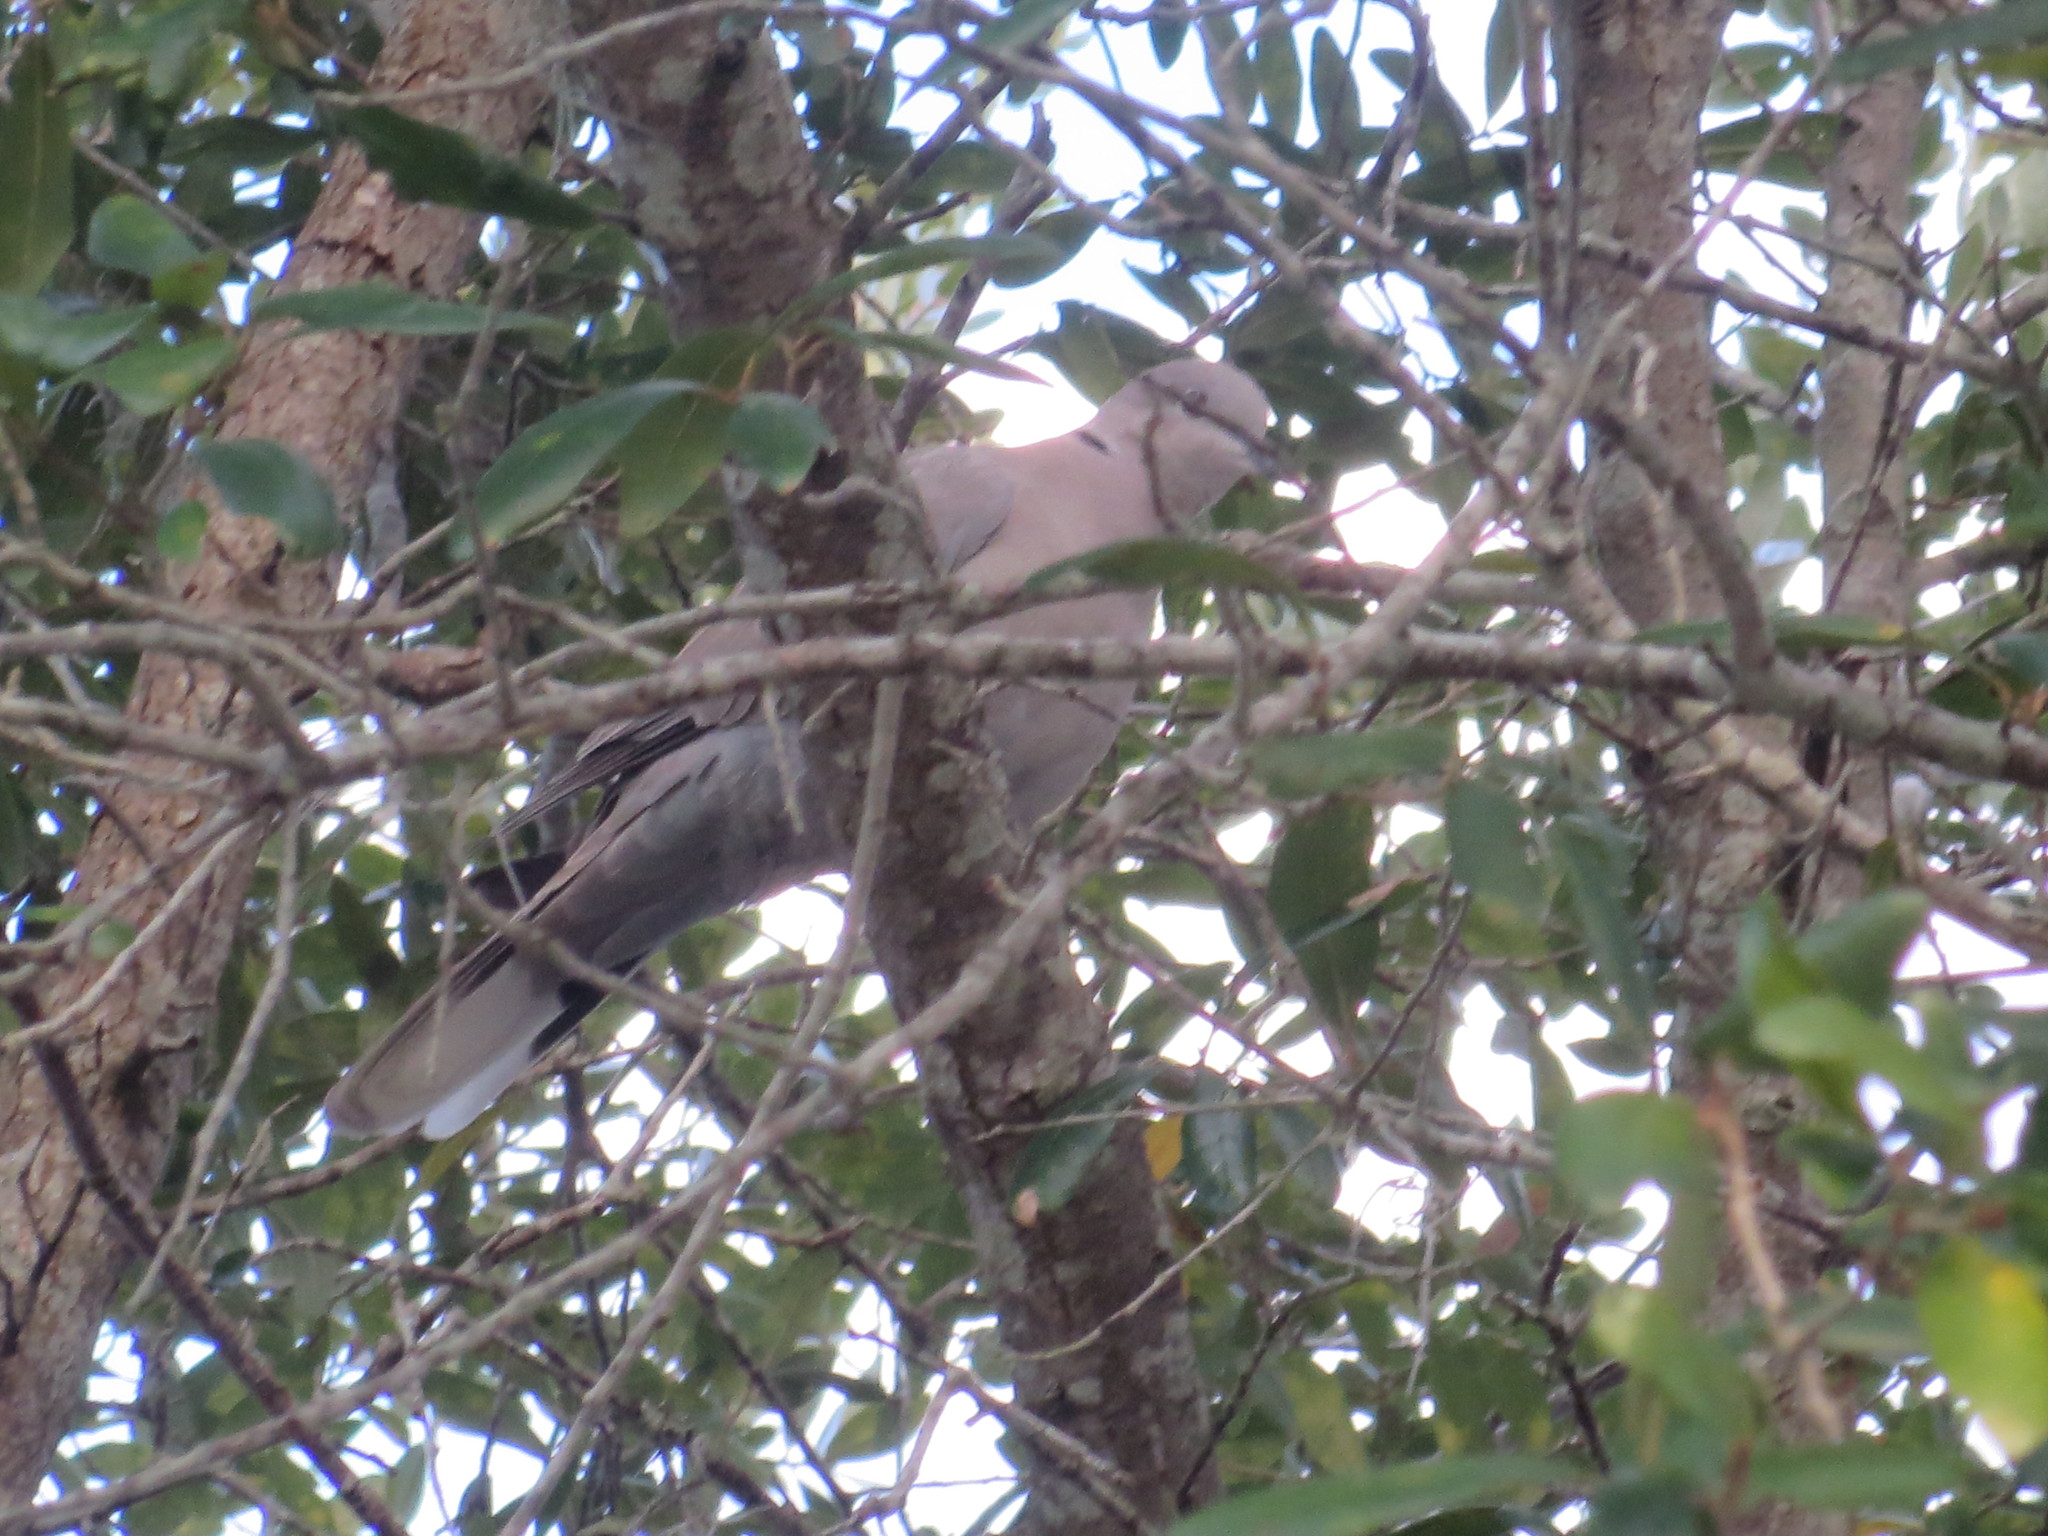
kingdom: Animalia
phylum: Chordata
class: Aves
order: Columbiformes
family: Columbidae
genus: Streptopelia
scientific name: Streptopelia decaocto
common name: Eurasian collared dove
